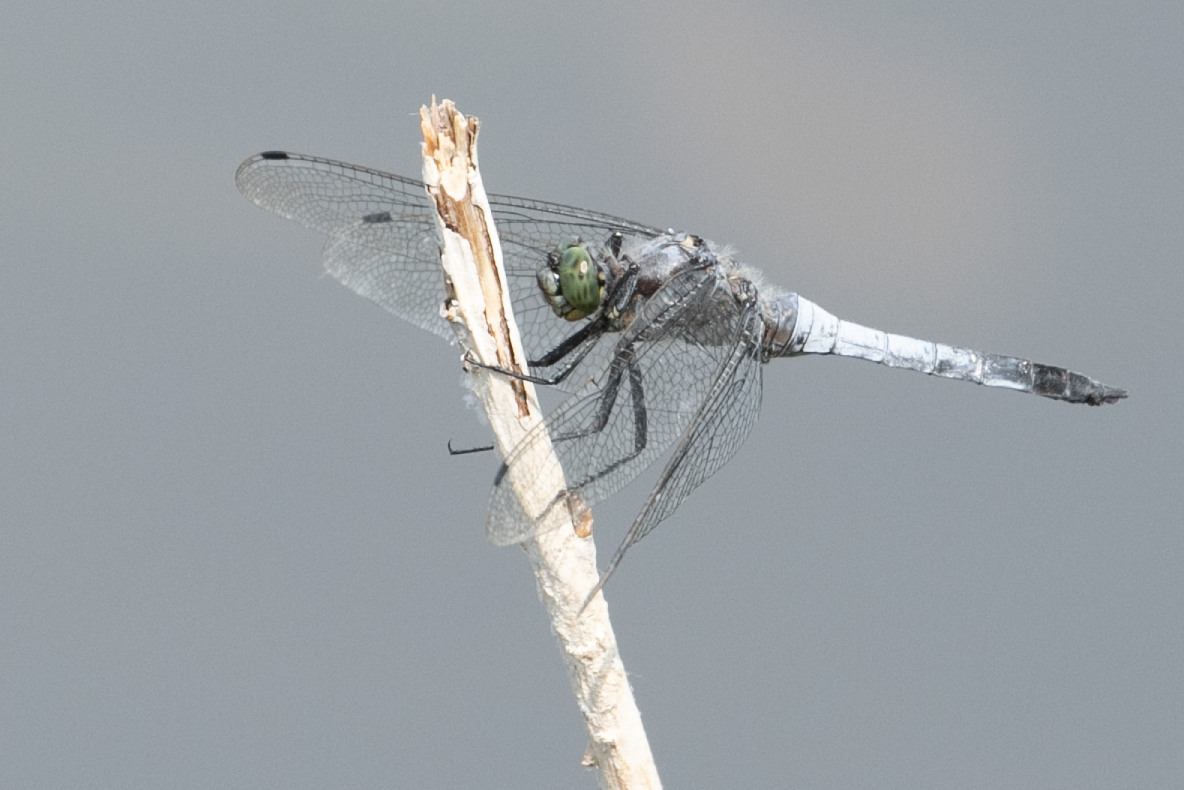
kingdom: Animalia
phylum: Arthropoda
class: Insecta
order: Odonata
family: Libellulidae
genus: Orthetrum
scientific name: Orthetrum cancellatum
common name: Black-tailed skimmer
